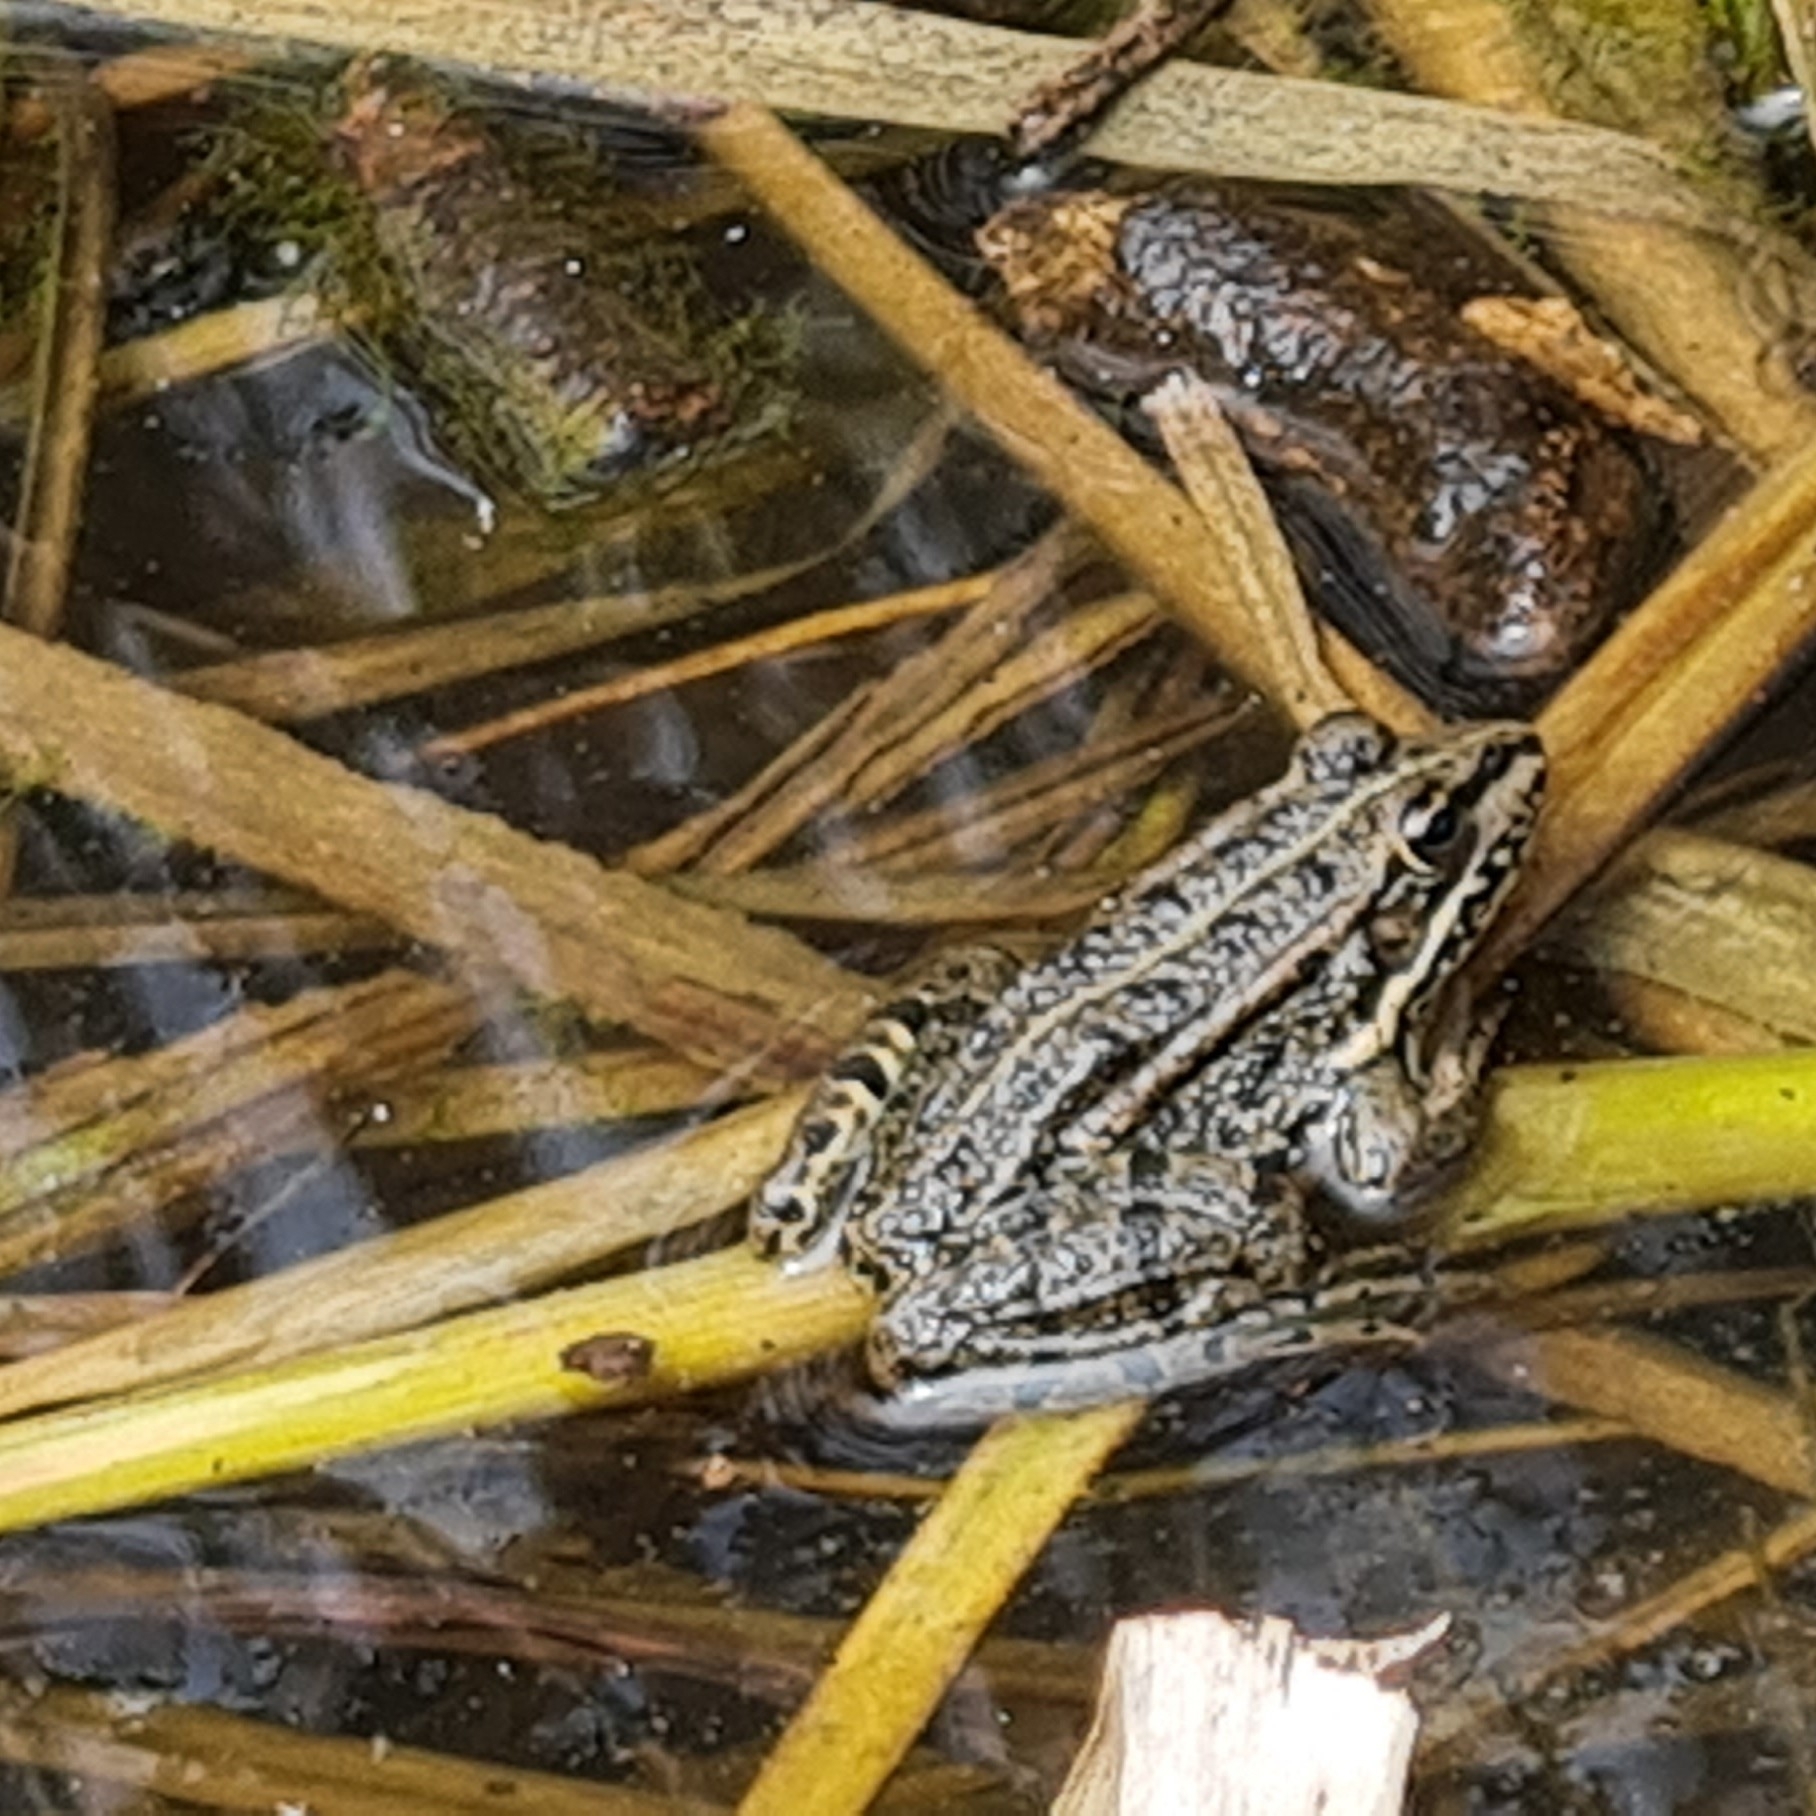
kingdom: Animalia
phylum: Chordata
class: Amphibia
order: Anura
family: Ranidae
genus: Pelophylax
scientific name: Pelophylax perezi
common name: Perez's frog
